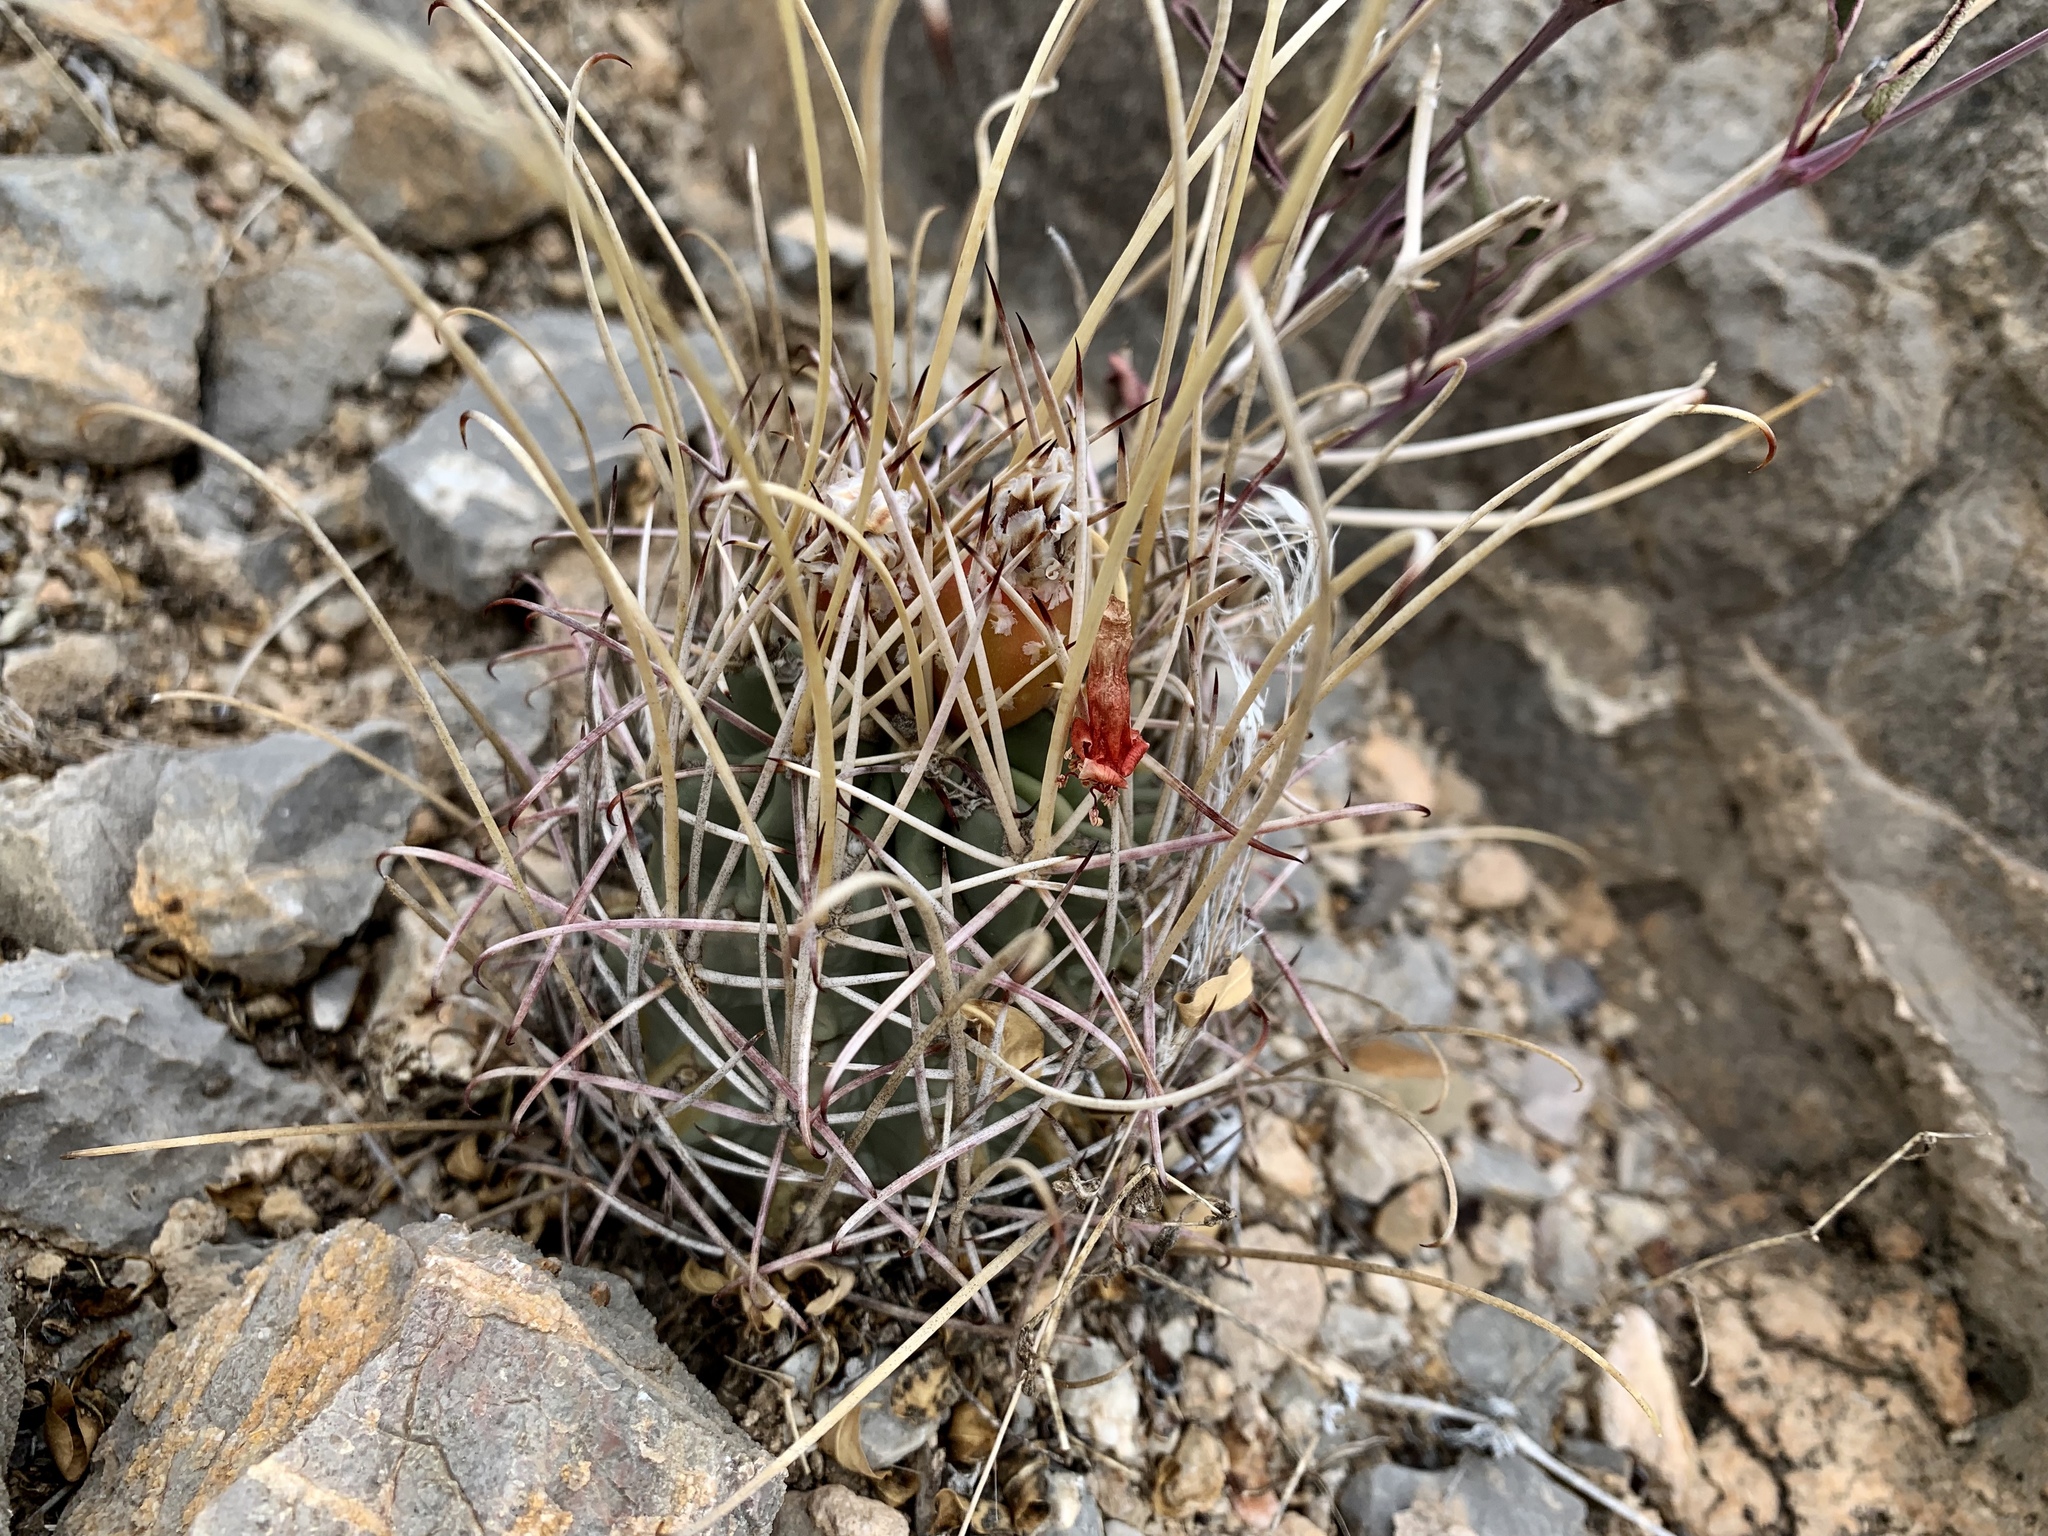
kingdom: Plantae
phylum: Tracheophyta
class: Magnoliopsida
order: Caryophyllales
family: Cactaceae
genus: Ferocactus
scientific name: Ferocactus uncinatus
